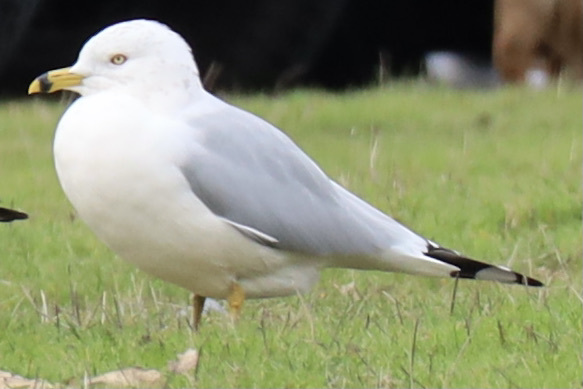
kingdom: Animalia
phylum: Chordata
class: Aves
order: Charadriiformes
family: Laridae
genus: Larus
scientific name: Larus delawarensis
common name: Ring-billed gull
